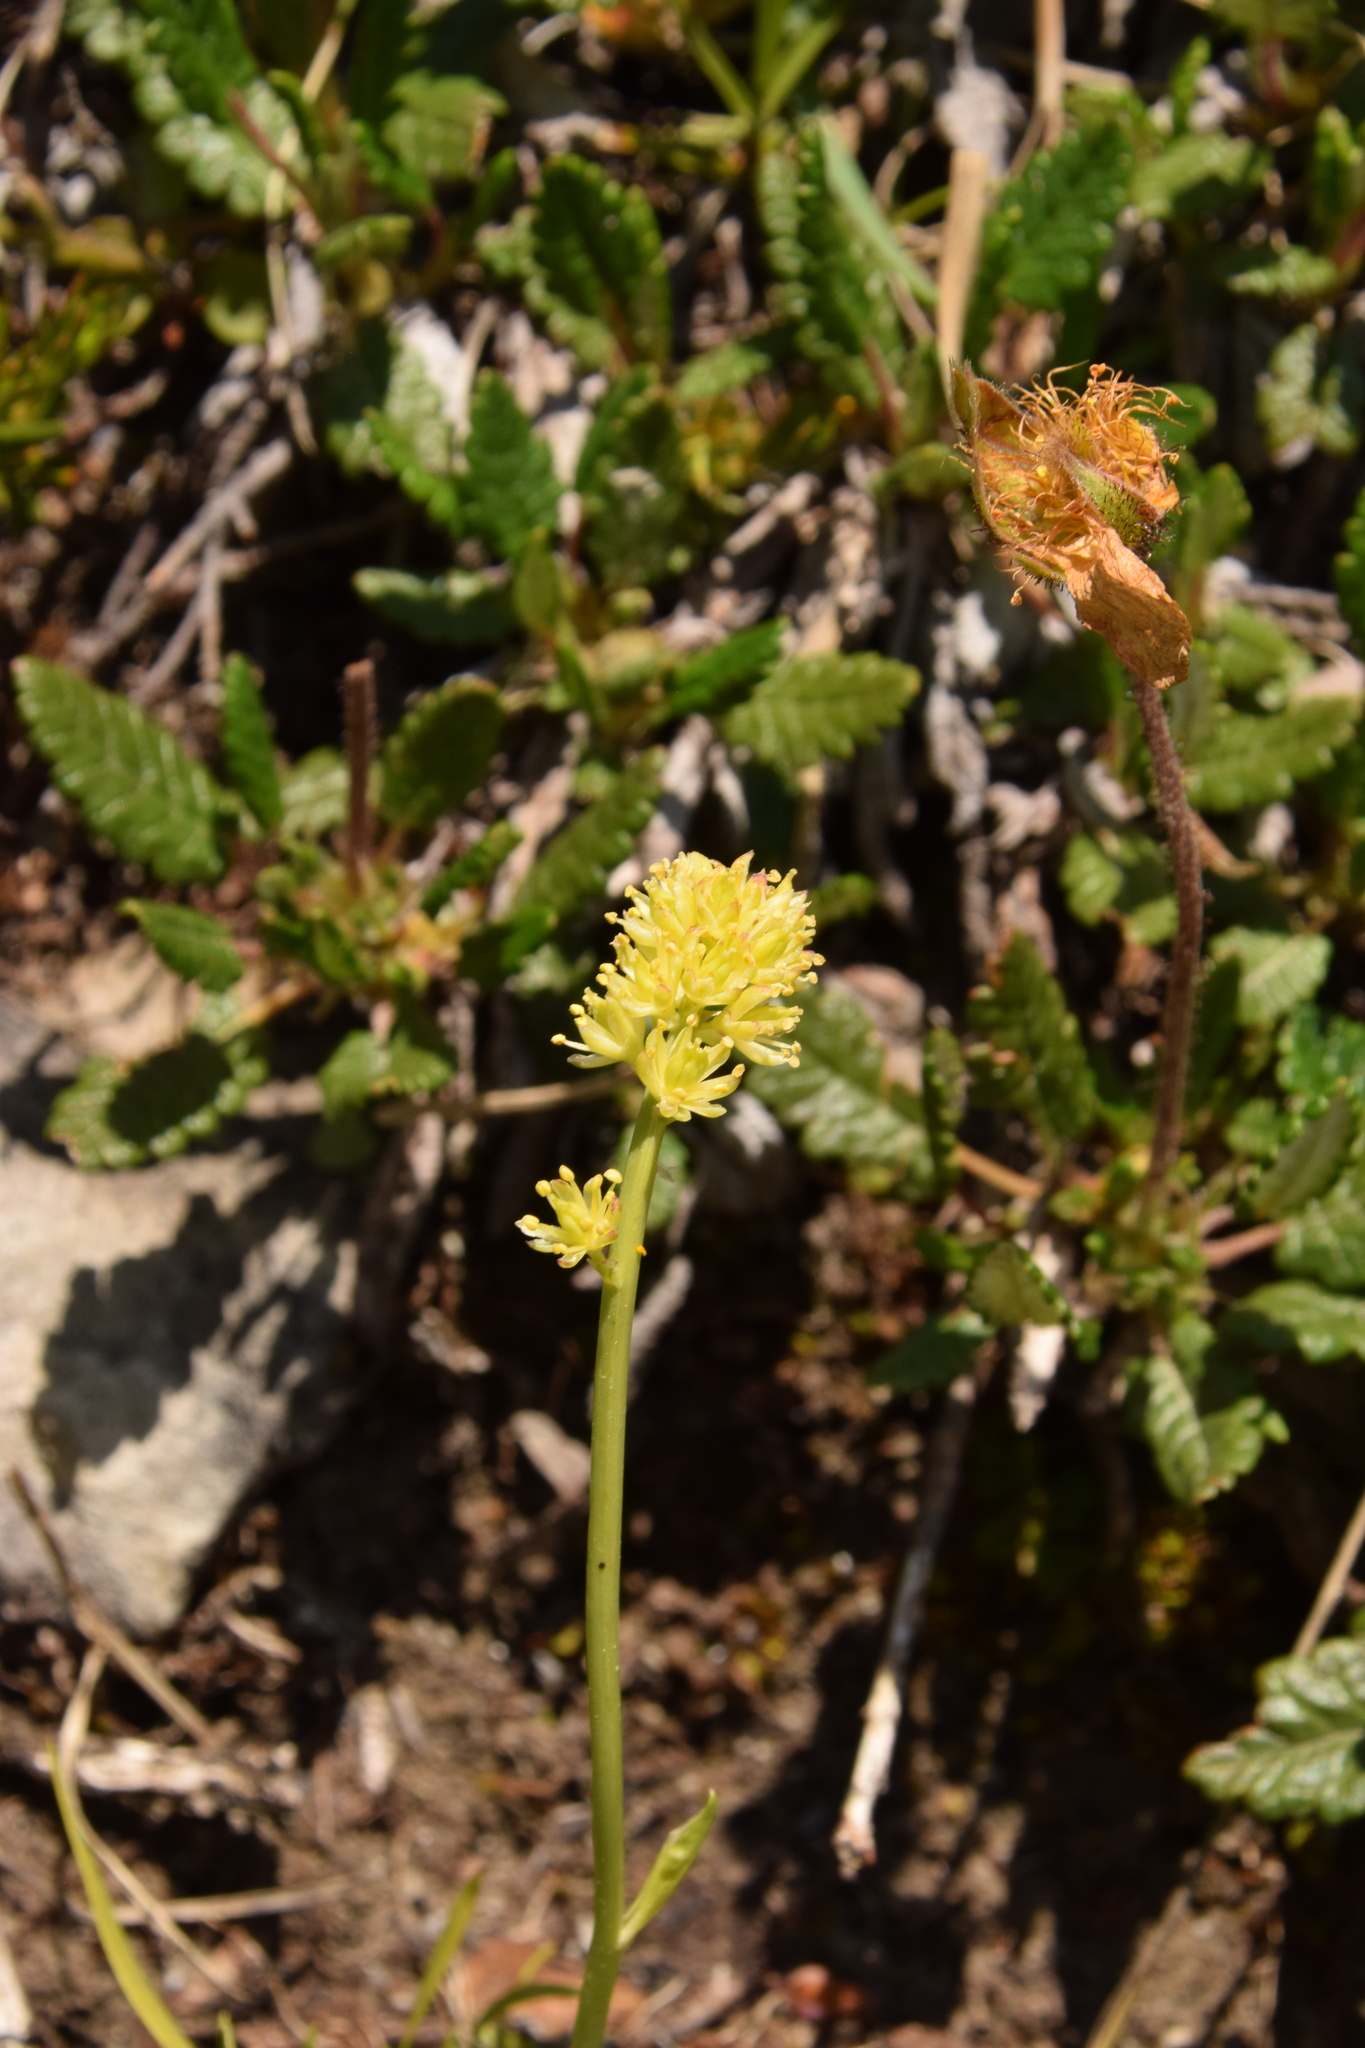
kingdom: Plantae
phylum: Tracheophyta
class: Liliopsida
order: Alismatales
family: Tofieldiaceae
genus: Tofieldia
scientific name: Tofieldia calyculata
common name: German-asphodel
